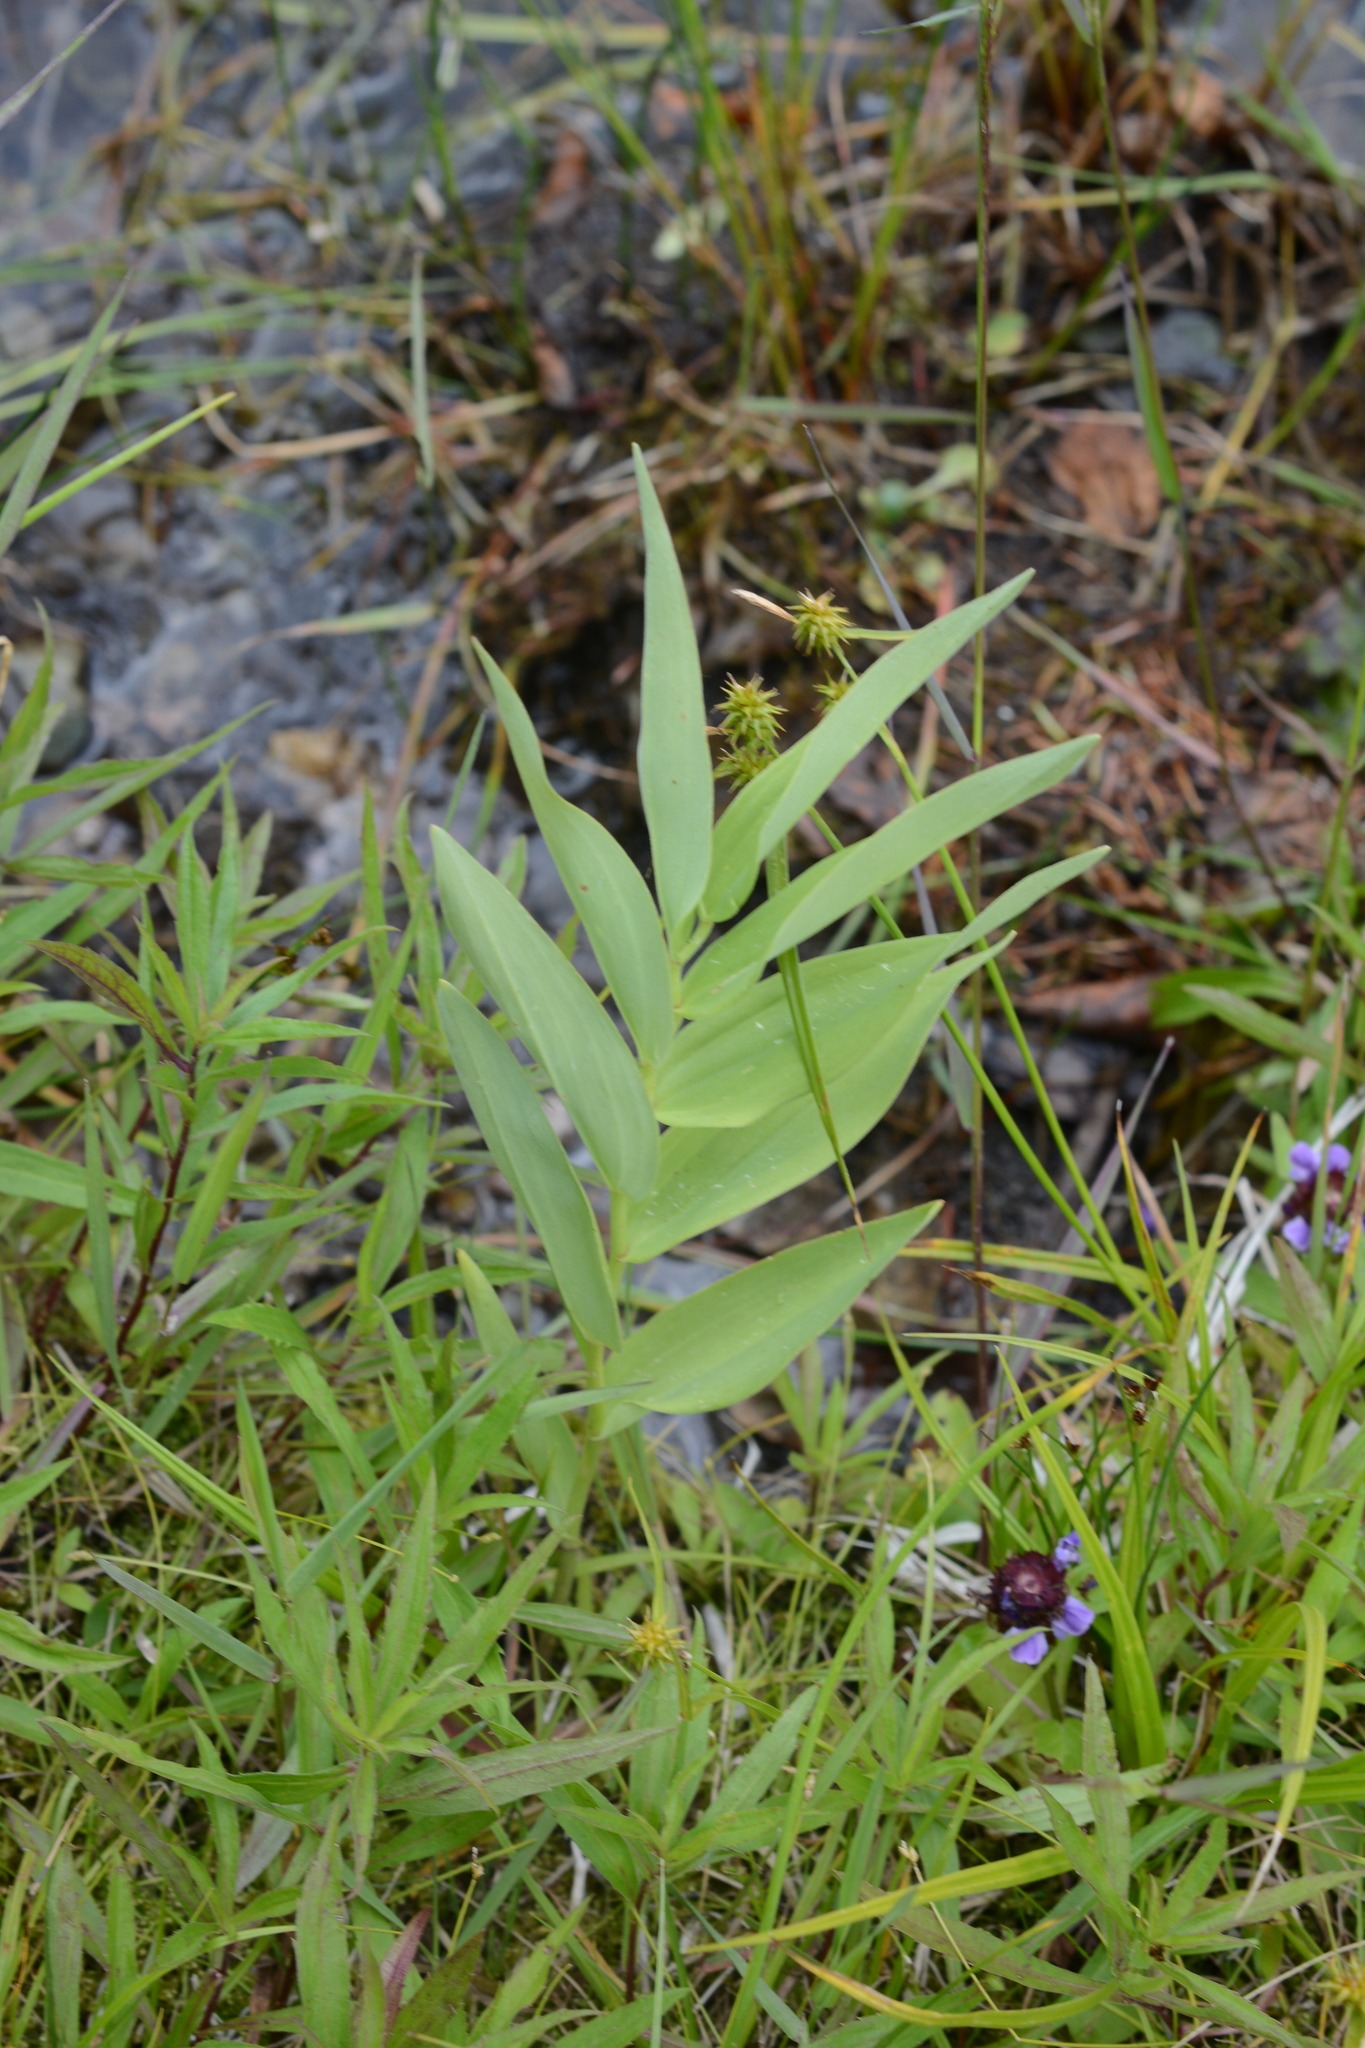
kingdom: Plantae
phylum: Tracheophyta
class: Liliopsida
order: Asparagales
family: Asparagaceae
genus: Maianthemum
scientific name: Maianthemum stellatum
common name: Little false solomon's seal
